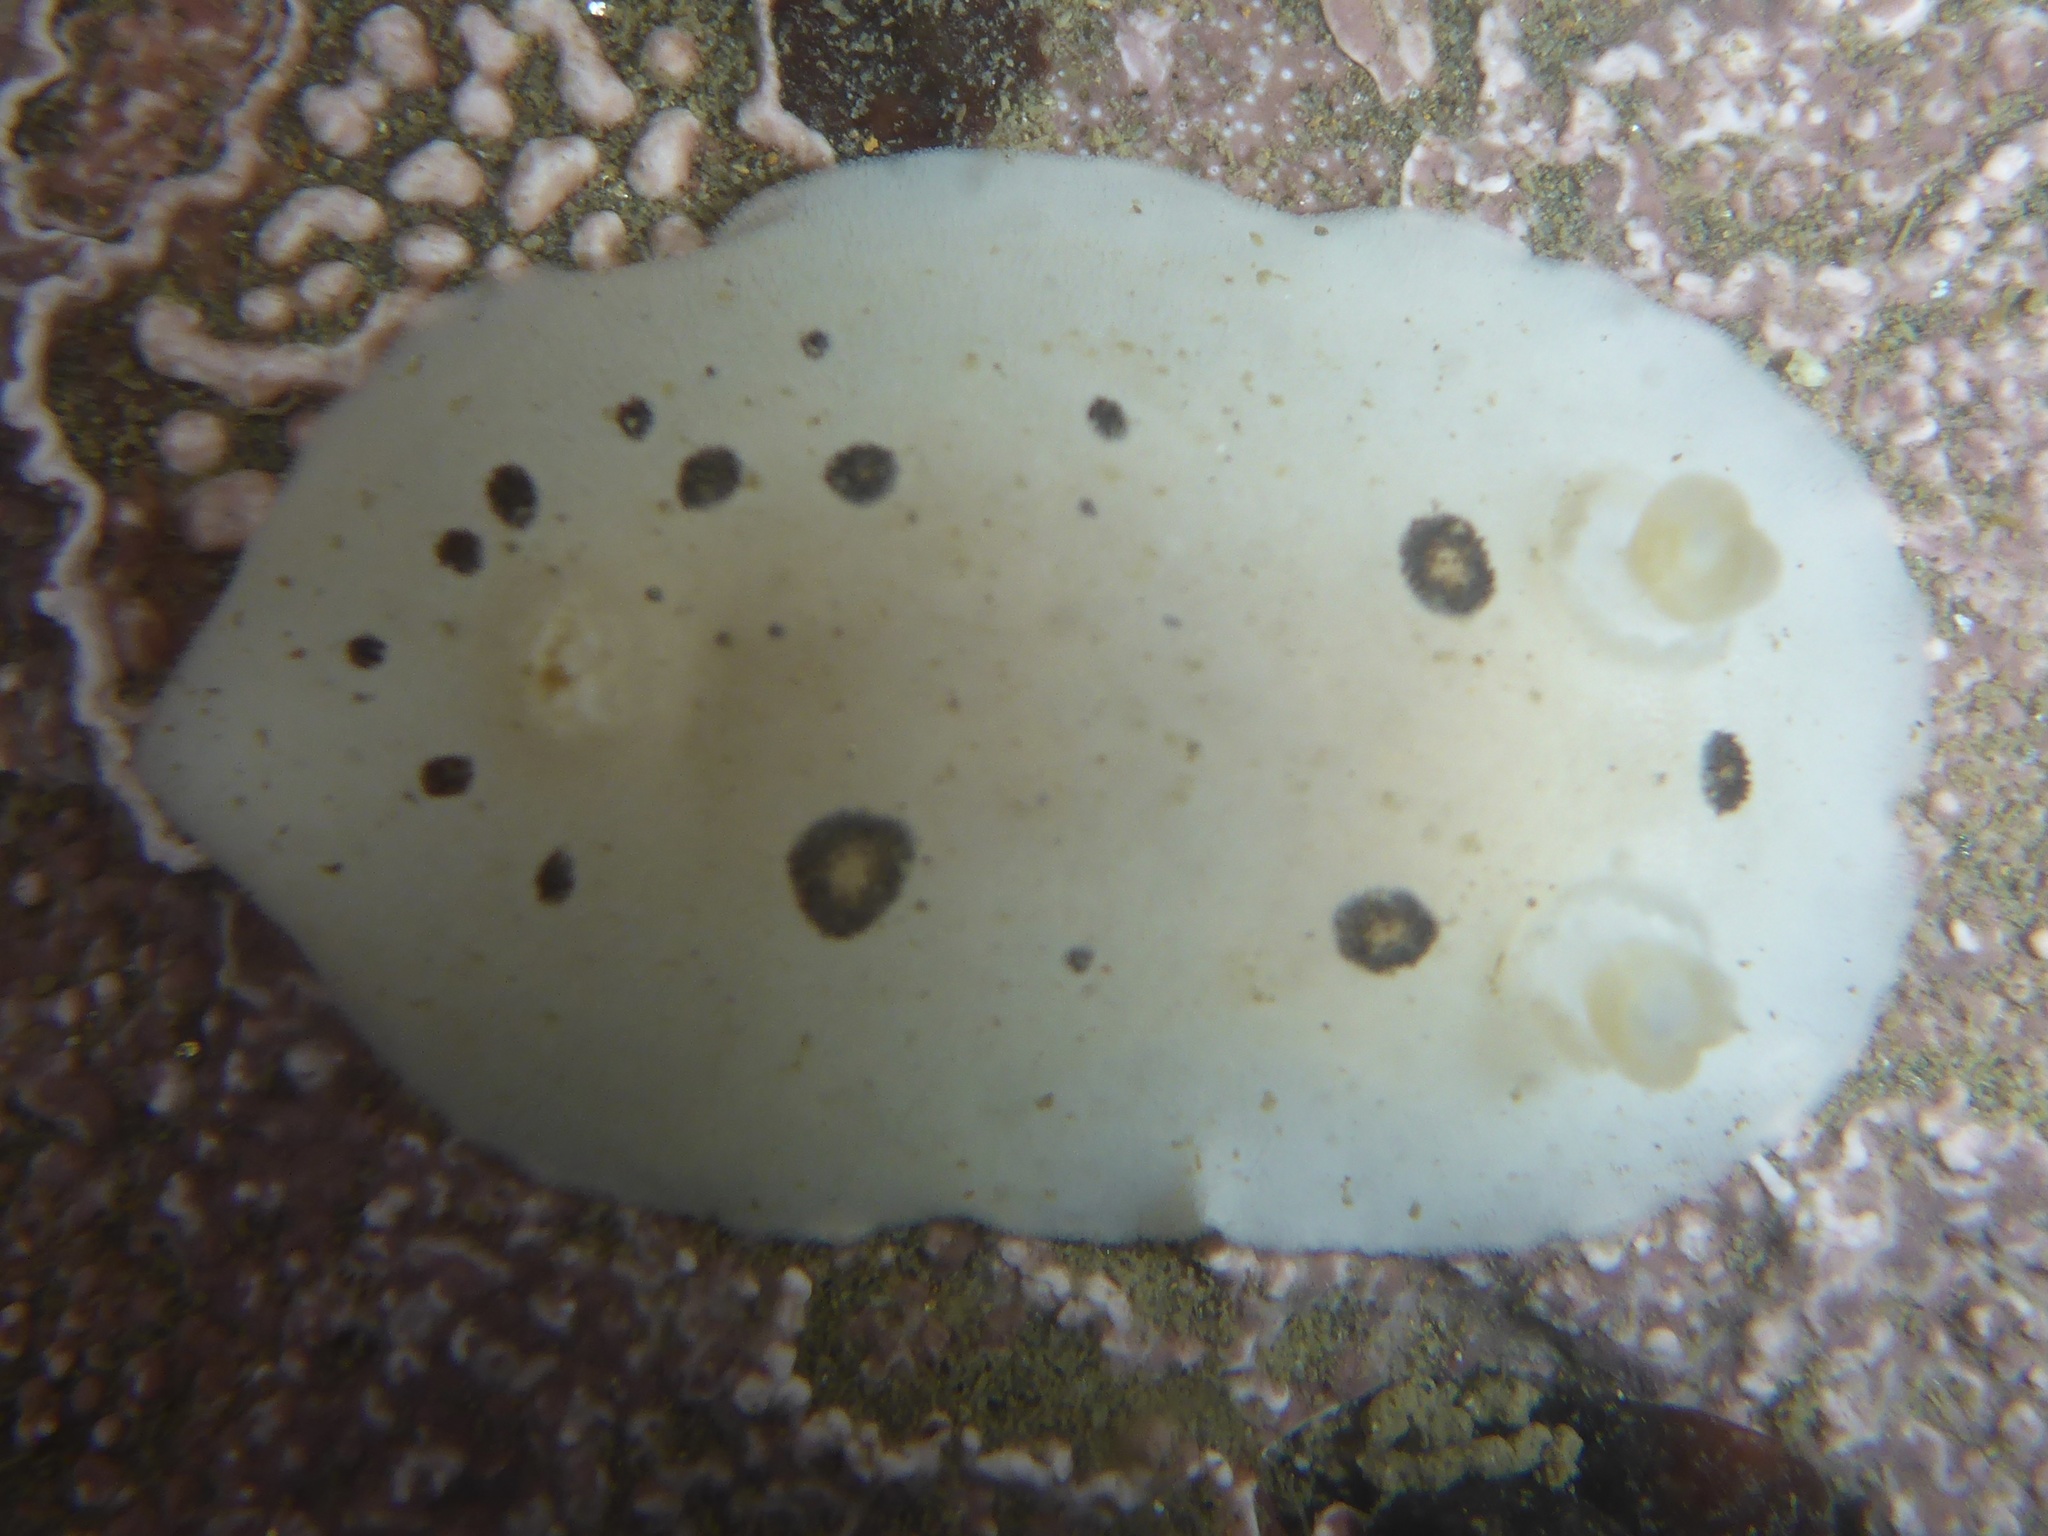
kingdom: Animalia
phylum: Mollusca
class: Gastropoda
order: Nudibranchia
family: Discodorididae
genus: Diaulula
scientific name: Diaulula sandiegensis
